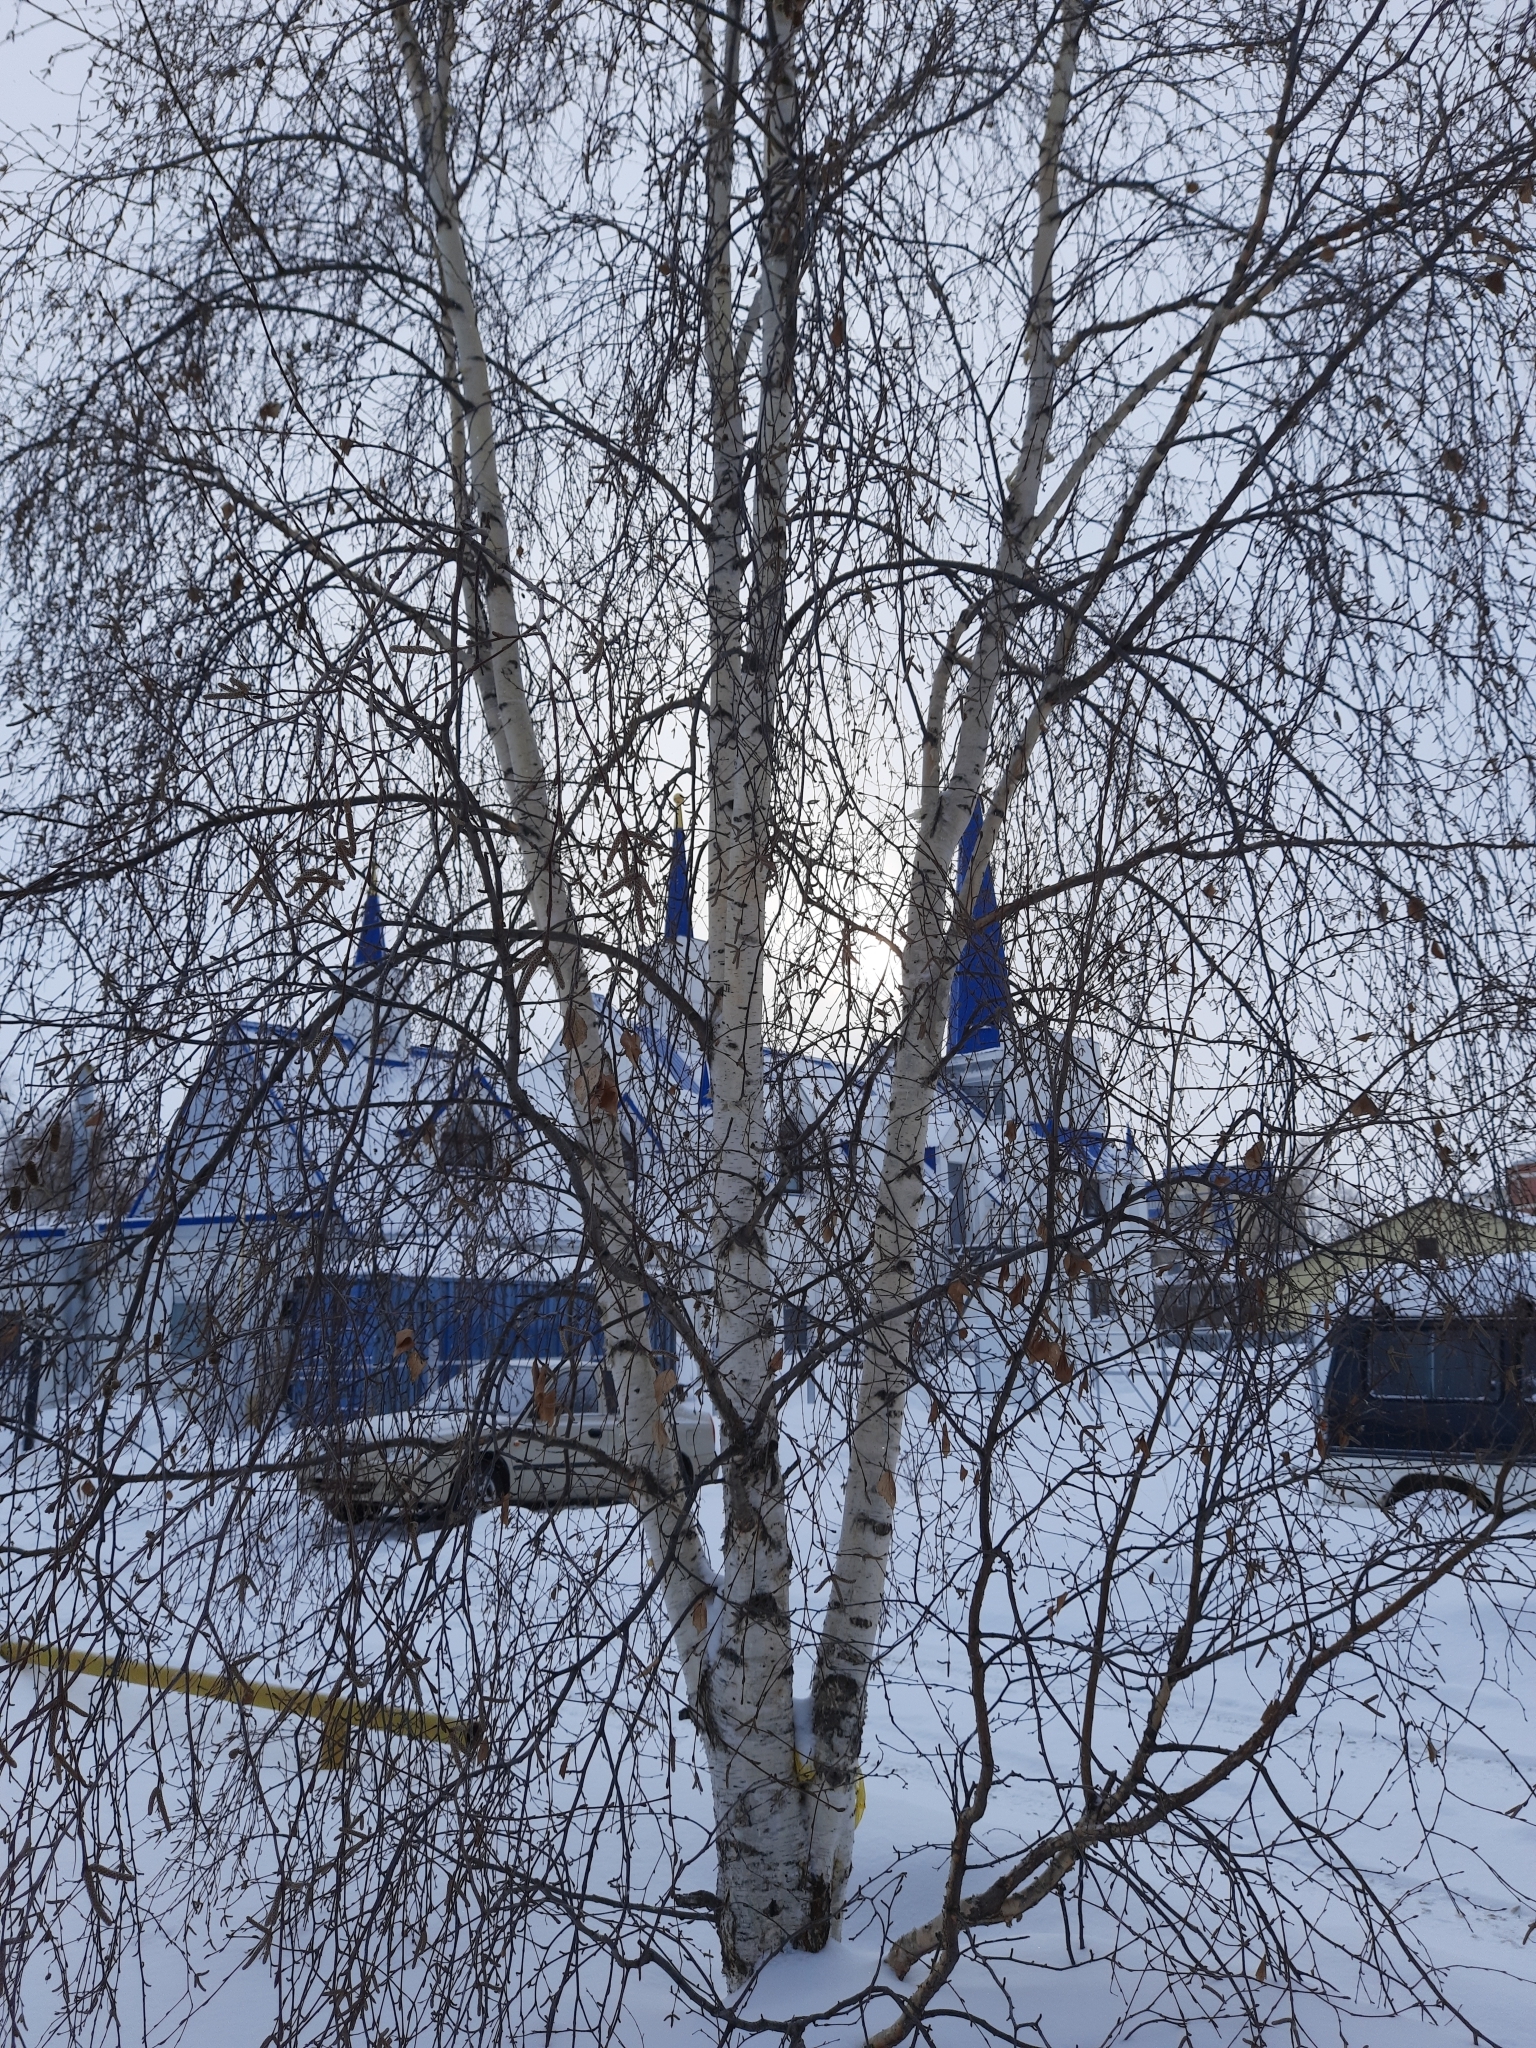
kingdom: Plantae
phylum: Tracheophyta
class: Magnoliopsida
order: Fagales
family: Betulaceae
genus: Betula
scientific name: Betula pendula
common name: Silver birch
